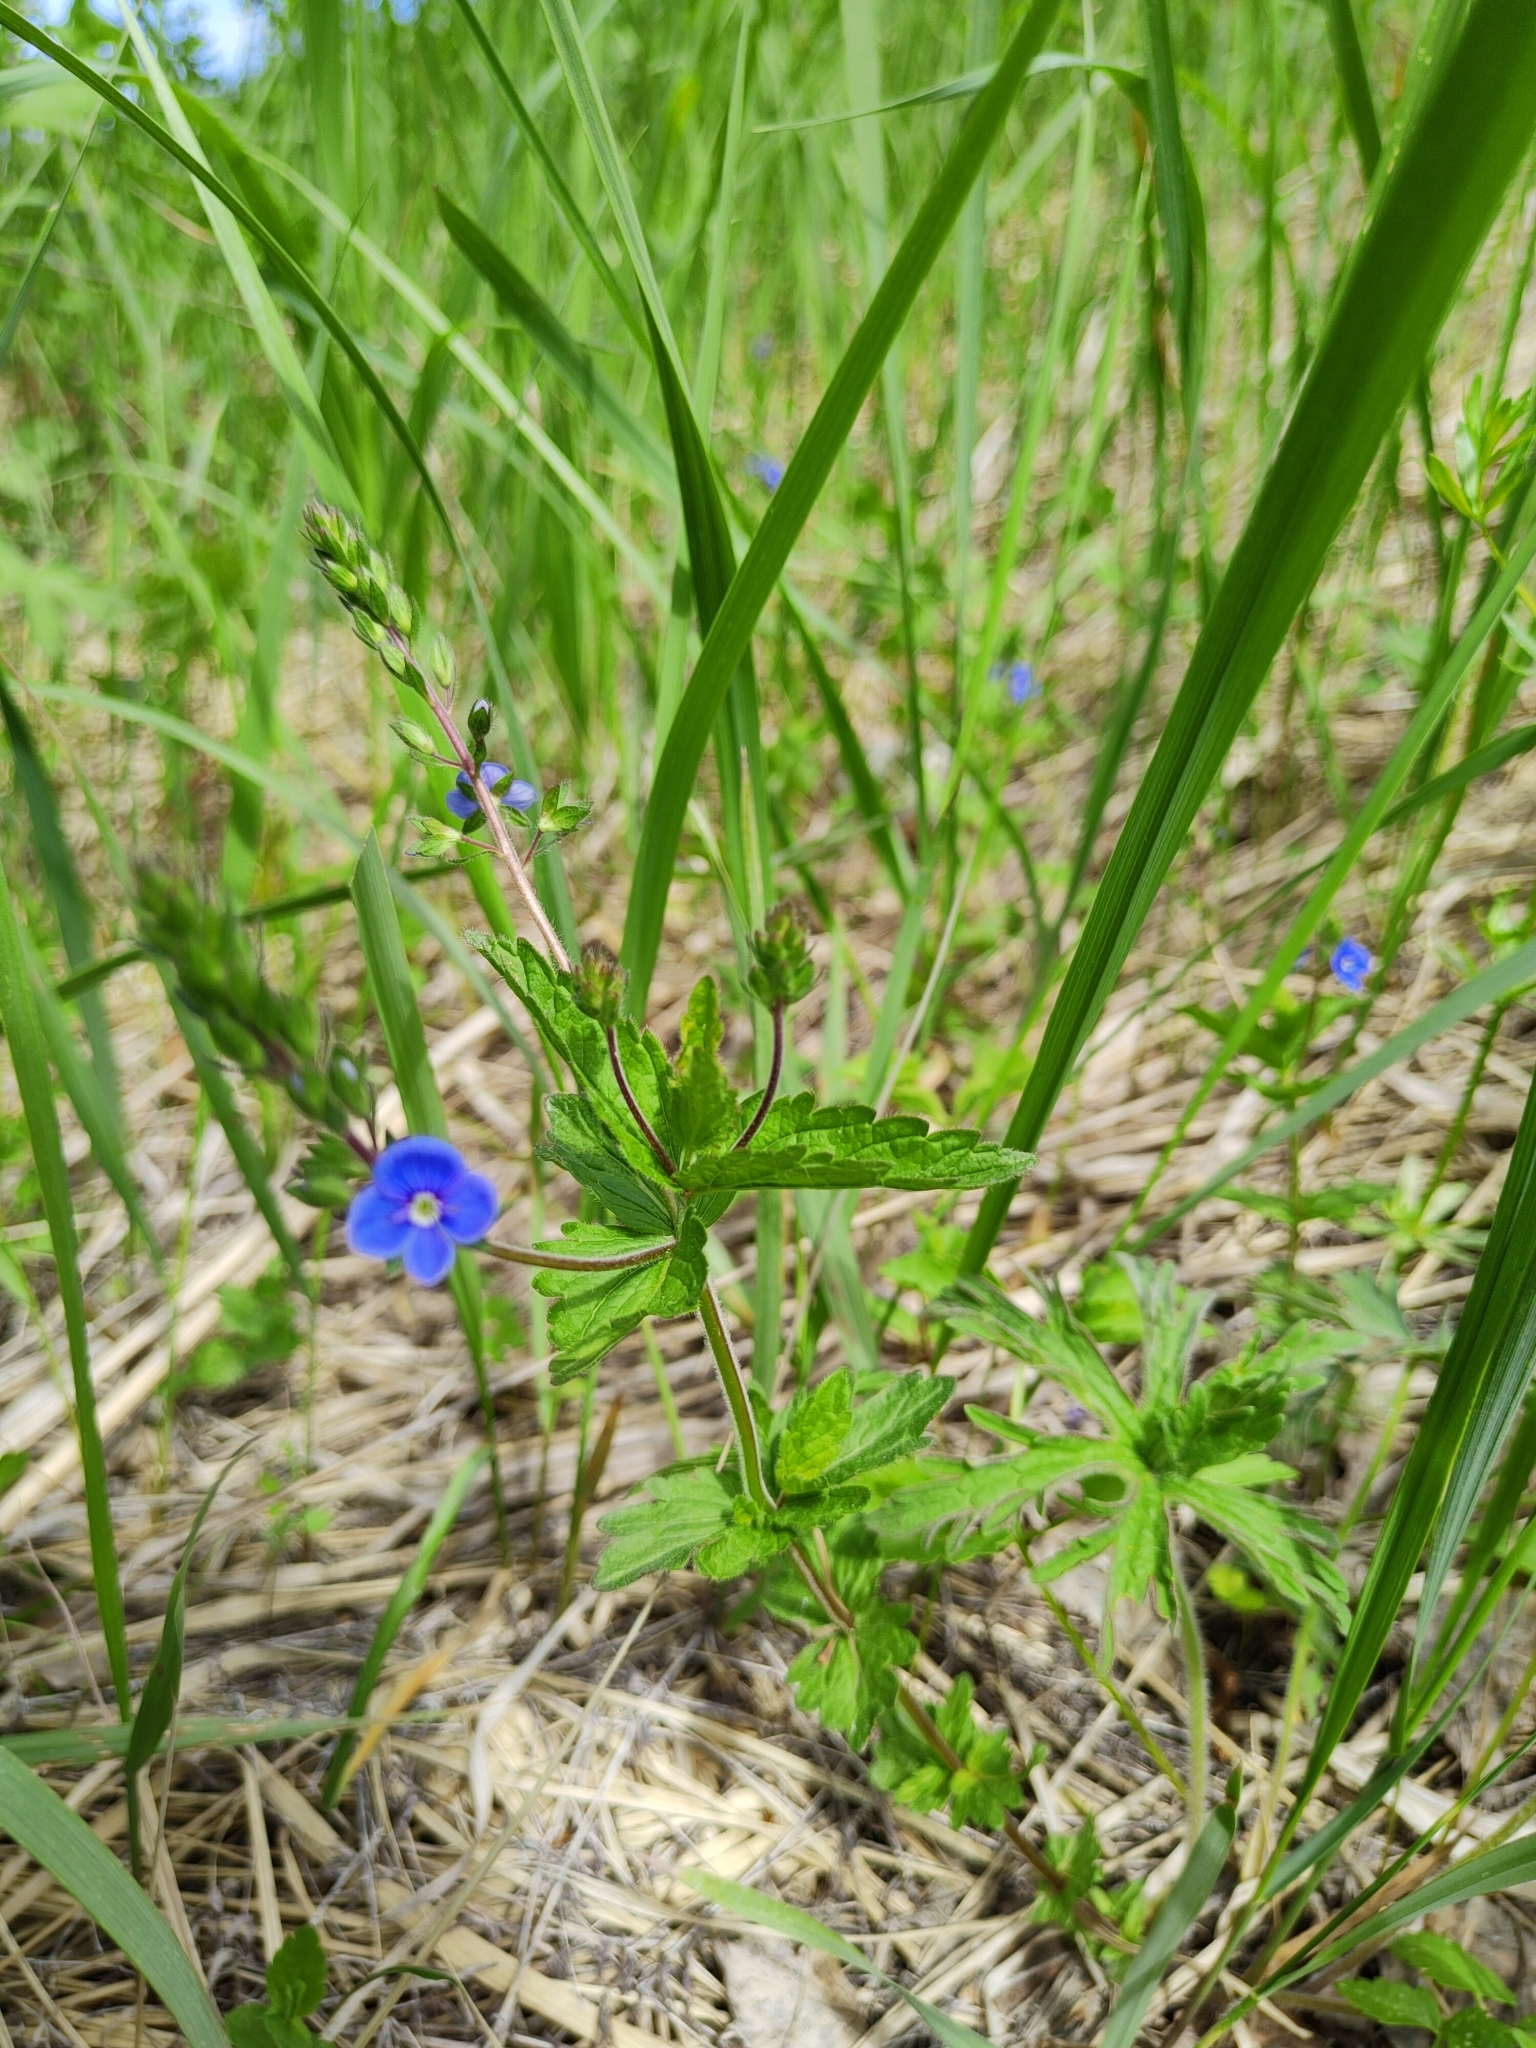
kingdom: Plantae
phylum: Tracheophyta
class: Magnoliopsida
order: Lamiales
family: Plantaginaceae
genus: Veronica
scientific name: Veronica chamaedrys
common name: Germander speedwell
